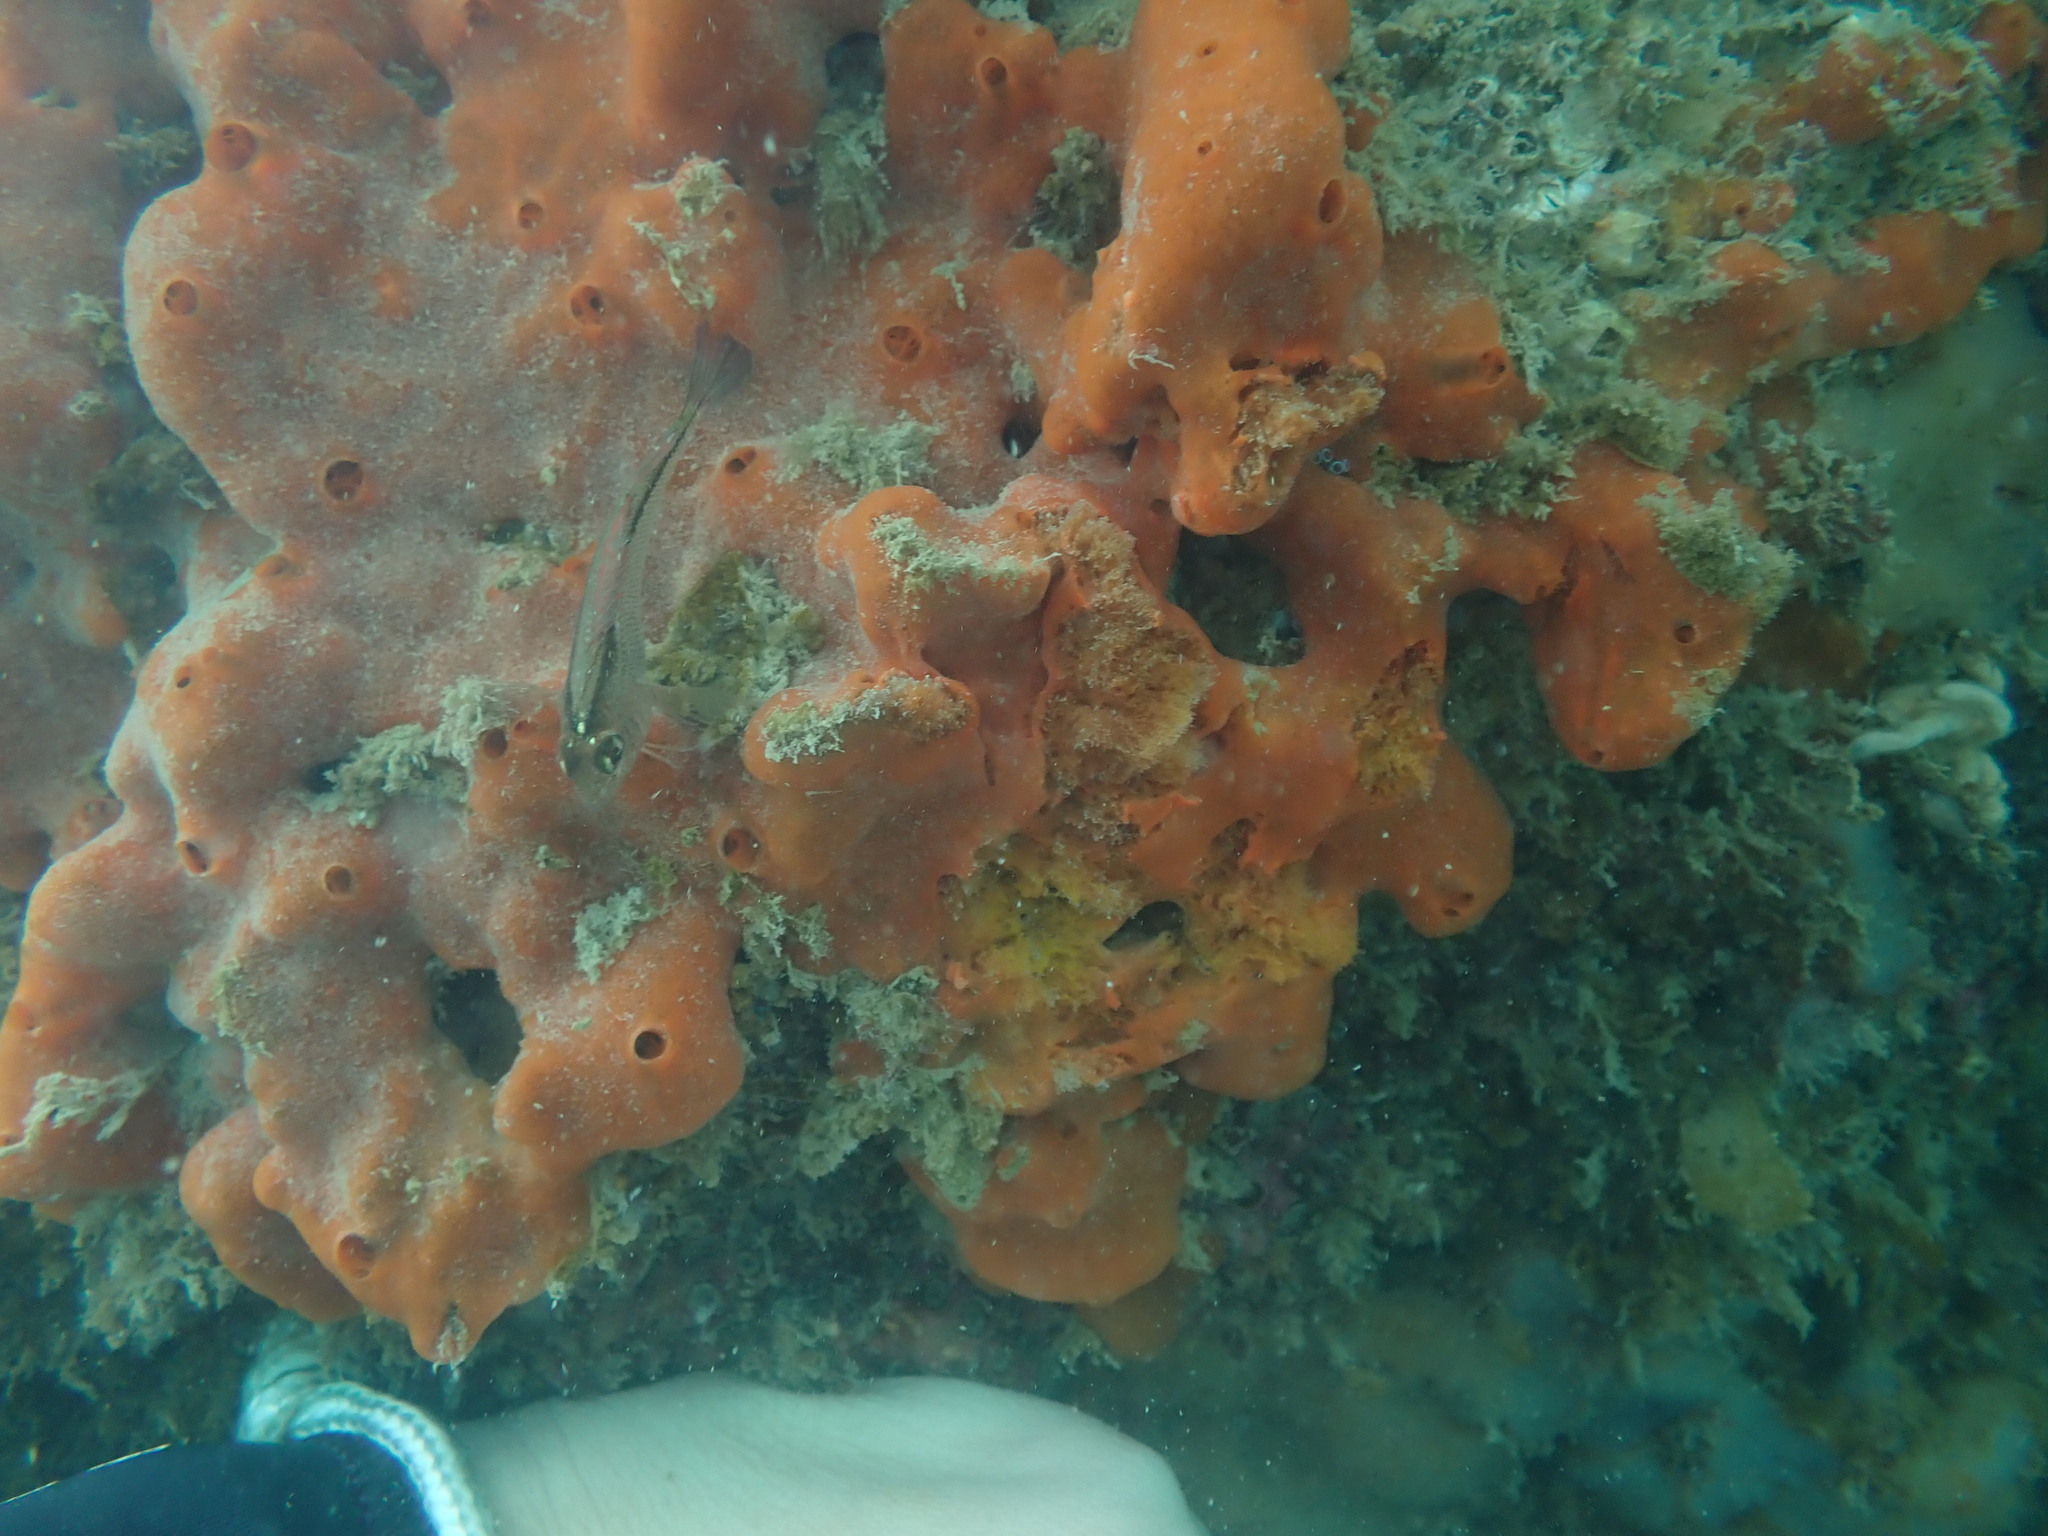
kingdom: Animalia
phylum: Porifera
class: Demospongiae
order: Poecilosclerida
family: Crellidae
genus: Crella
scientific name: Crella incrustans
